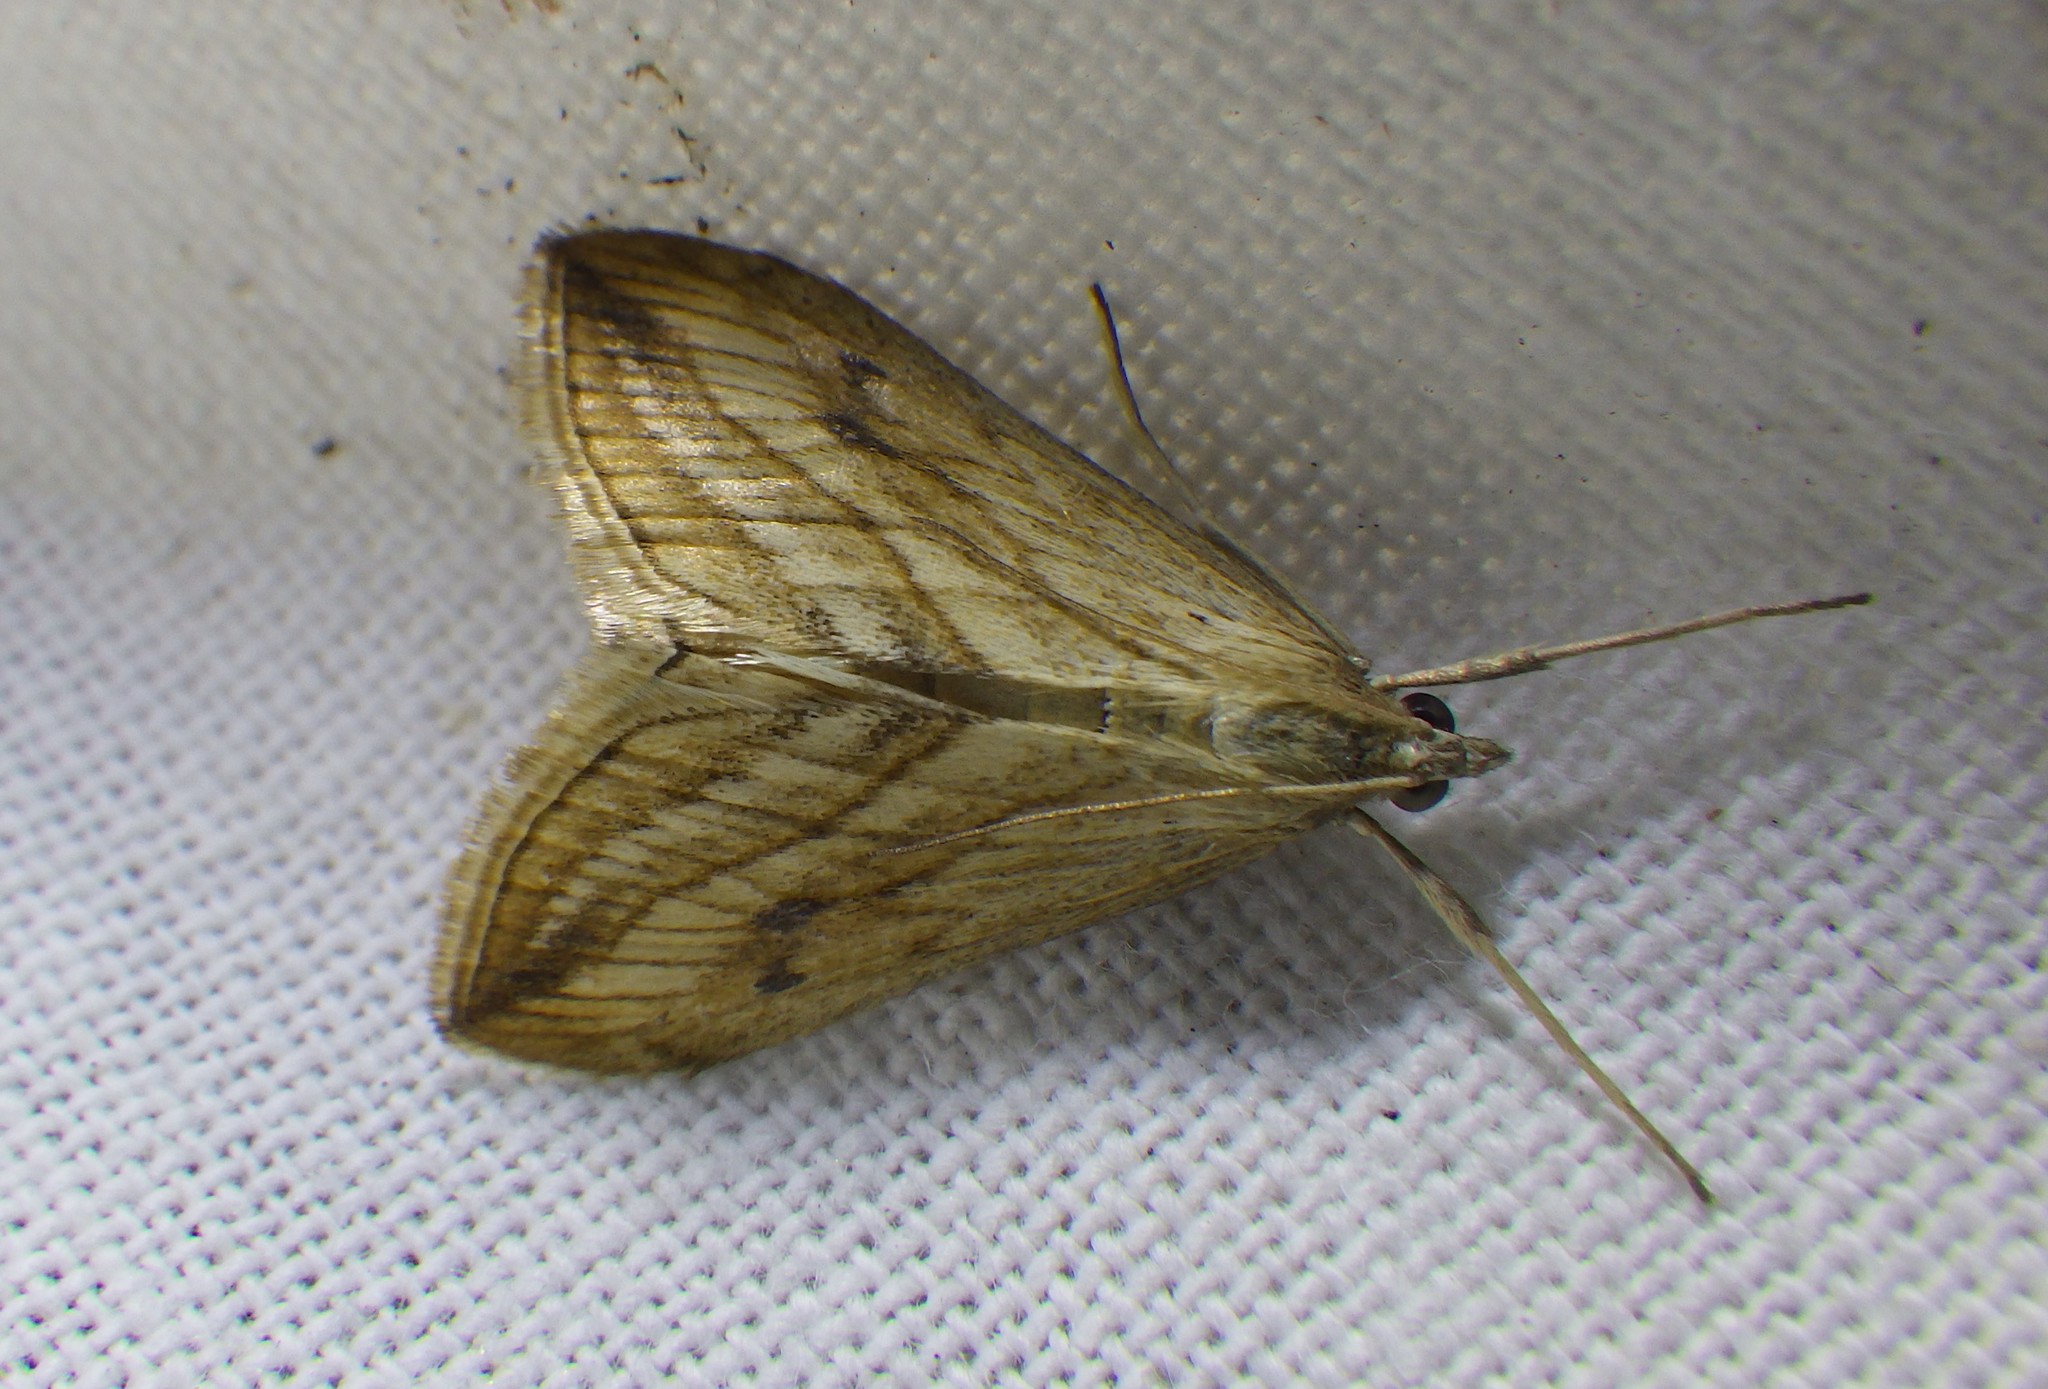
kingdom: Animalia
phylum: Arthropoda
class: Insecta
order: Lepidoptera
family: Crambidae
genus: Evergestis
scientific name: Evergestis forficalis
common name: Garden pebble
